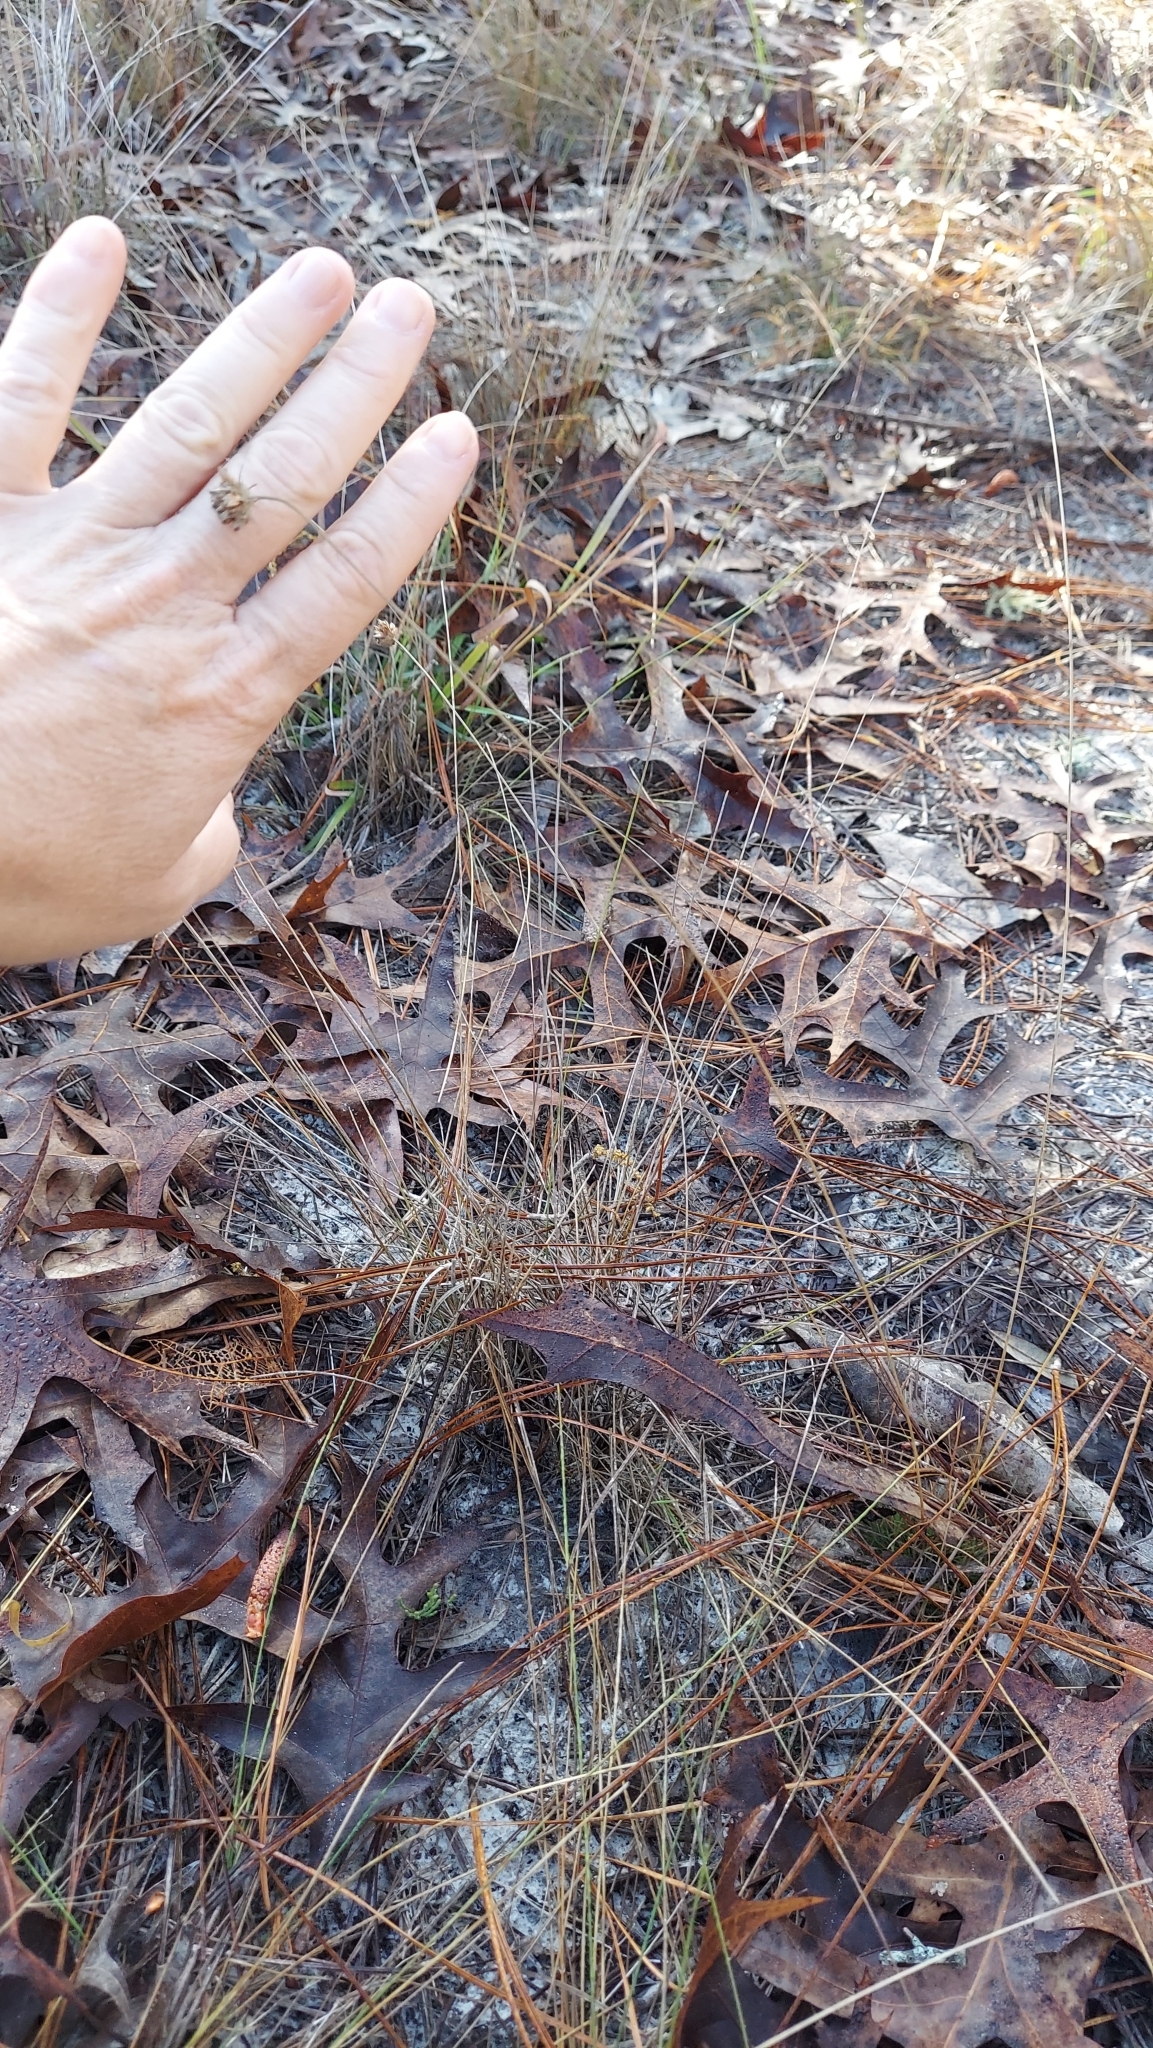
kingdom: Plantae
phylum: Tracheophyta
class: Liliopsida
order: Poales
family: Cyperaceae
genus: Bulbostylis
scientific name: Bulbostylis stenophylla
